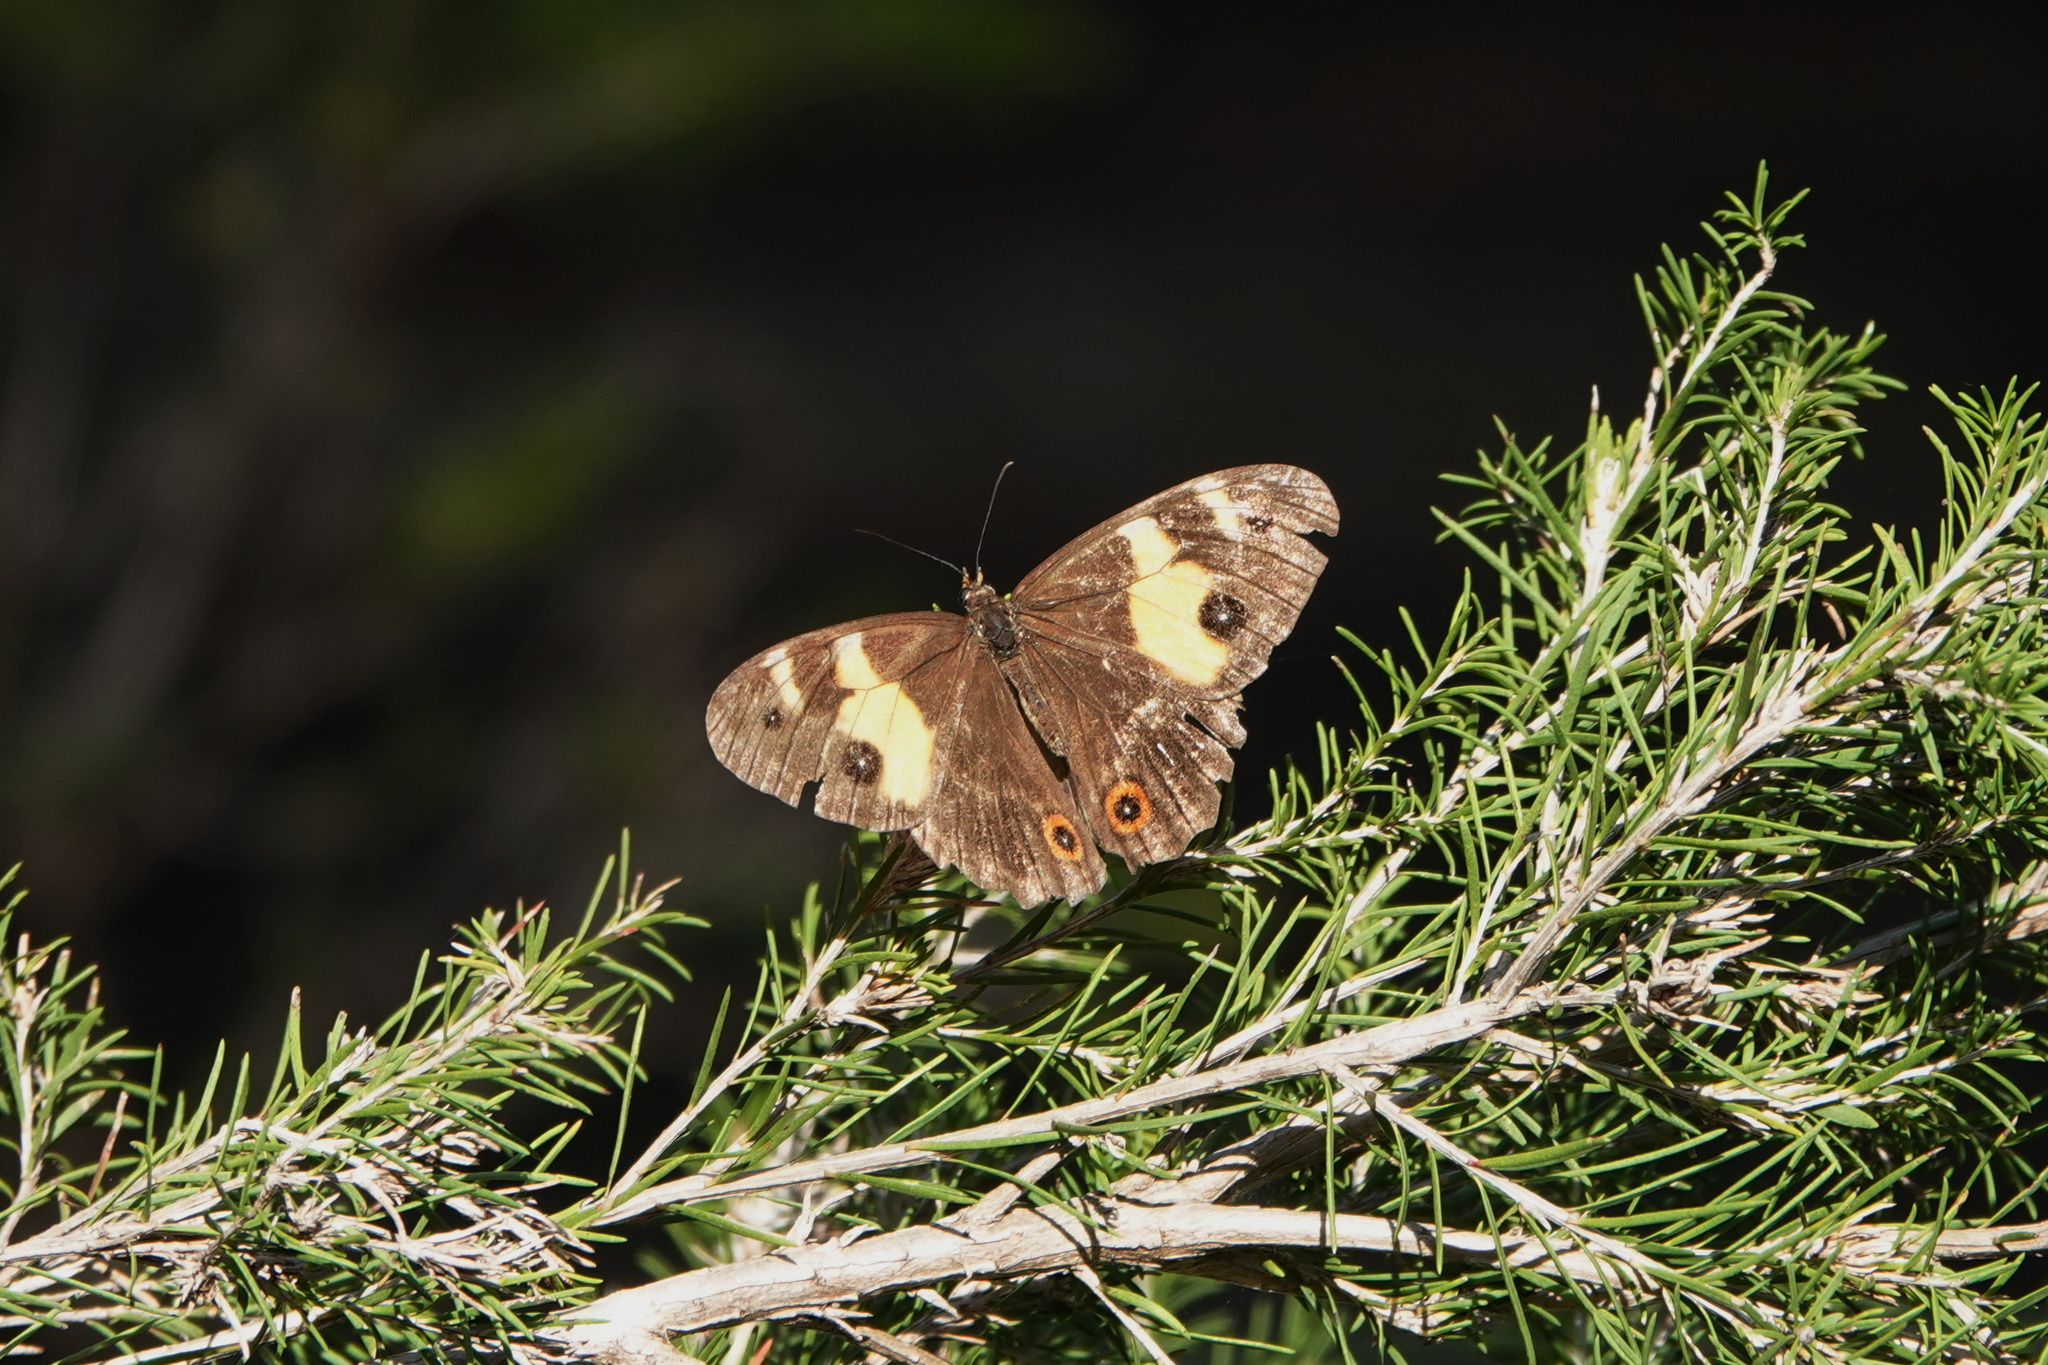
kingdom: Animalia
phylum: Arthropoda
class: Insecta
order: Lepidoptera
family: Nymphalidae
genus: Tisiphone
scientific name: Tisiphone abeona
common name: Swordgrass brown
